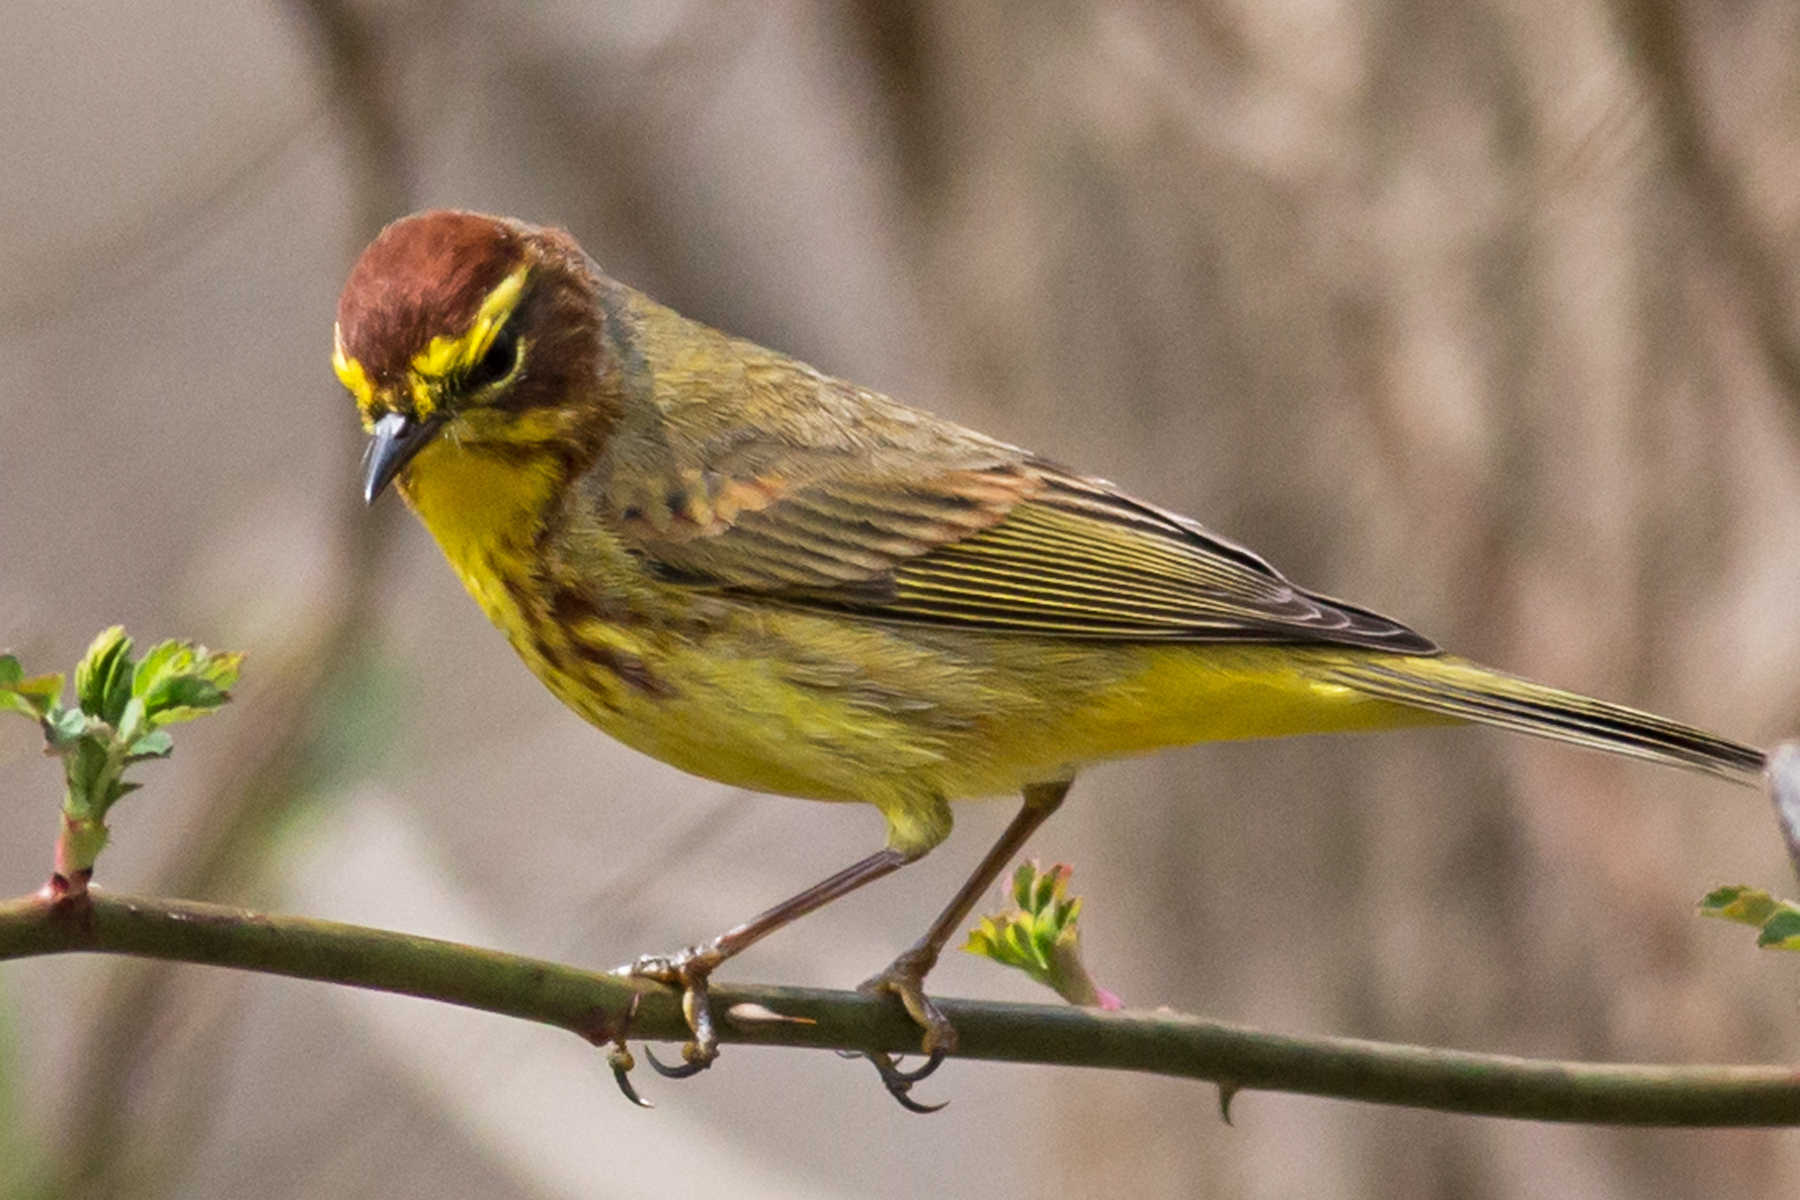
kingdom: Animalia
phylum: Chordata
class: Aves
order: Passeriformes
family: Parulidae
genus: Setophaga
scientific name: Setophaga palmarum
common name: Palm warbler
